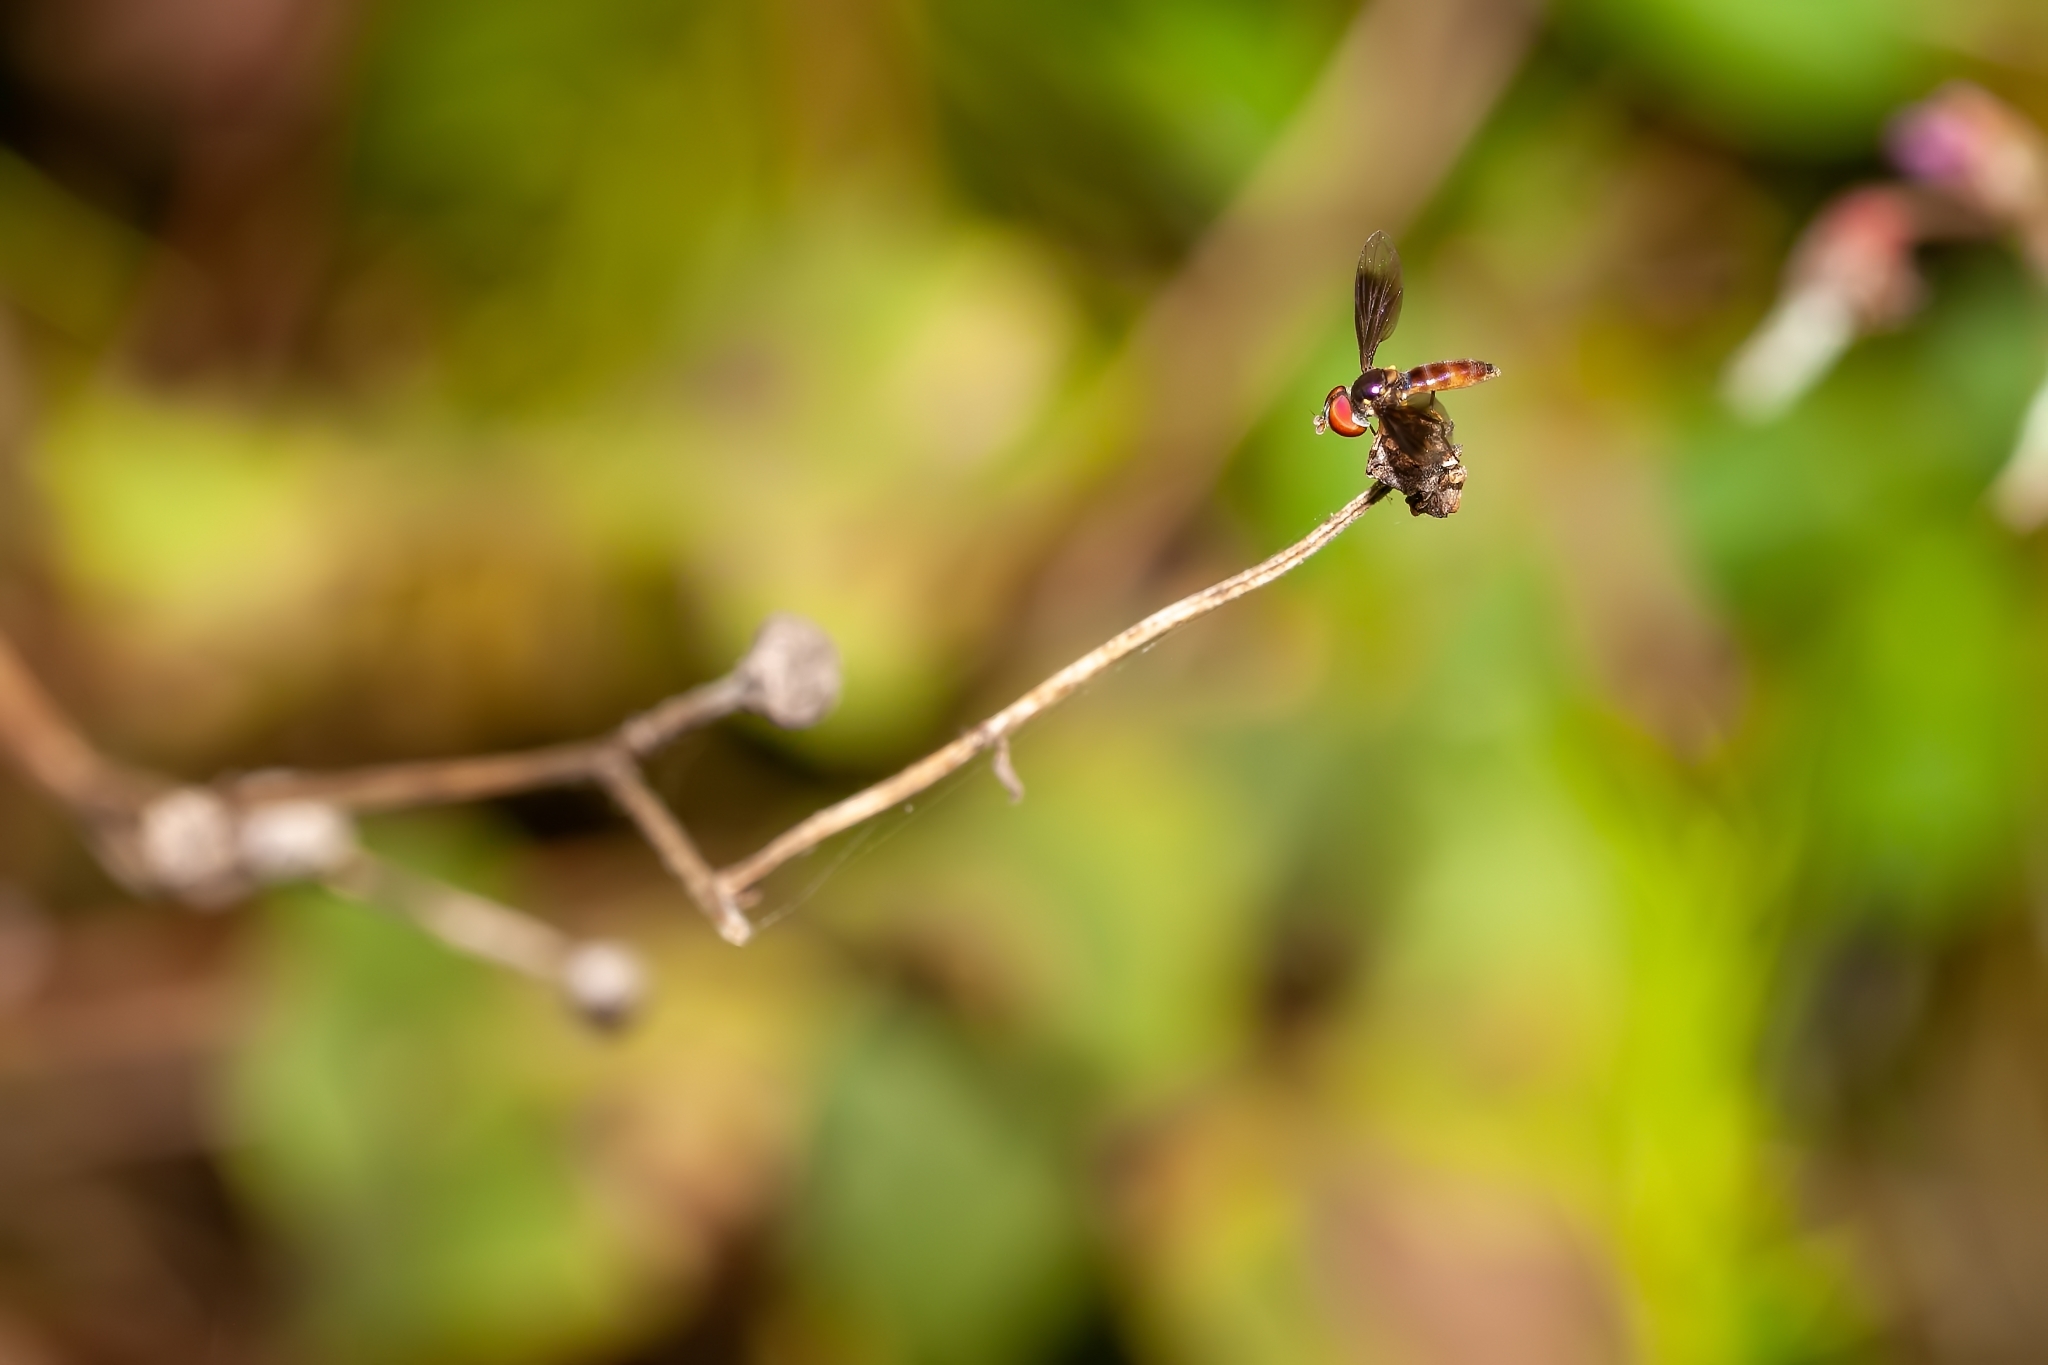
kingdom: Animalia
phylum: Arthropoda
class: Insecta
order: Diptera
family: Syrphidae
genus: Ocyptamus
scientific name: Ocyptamus antiphates
